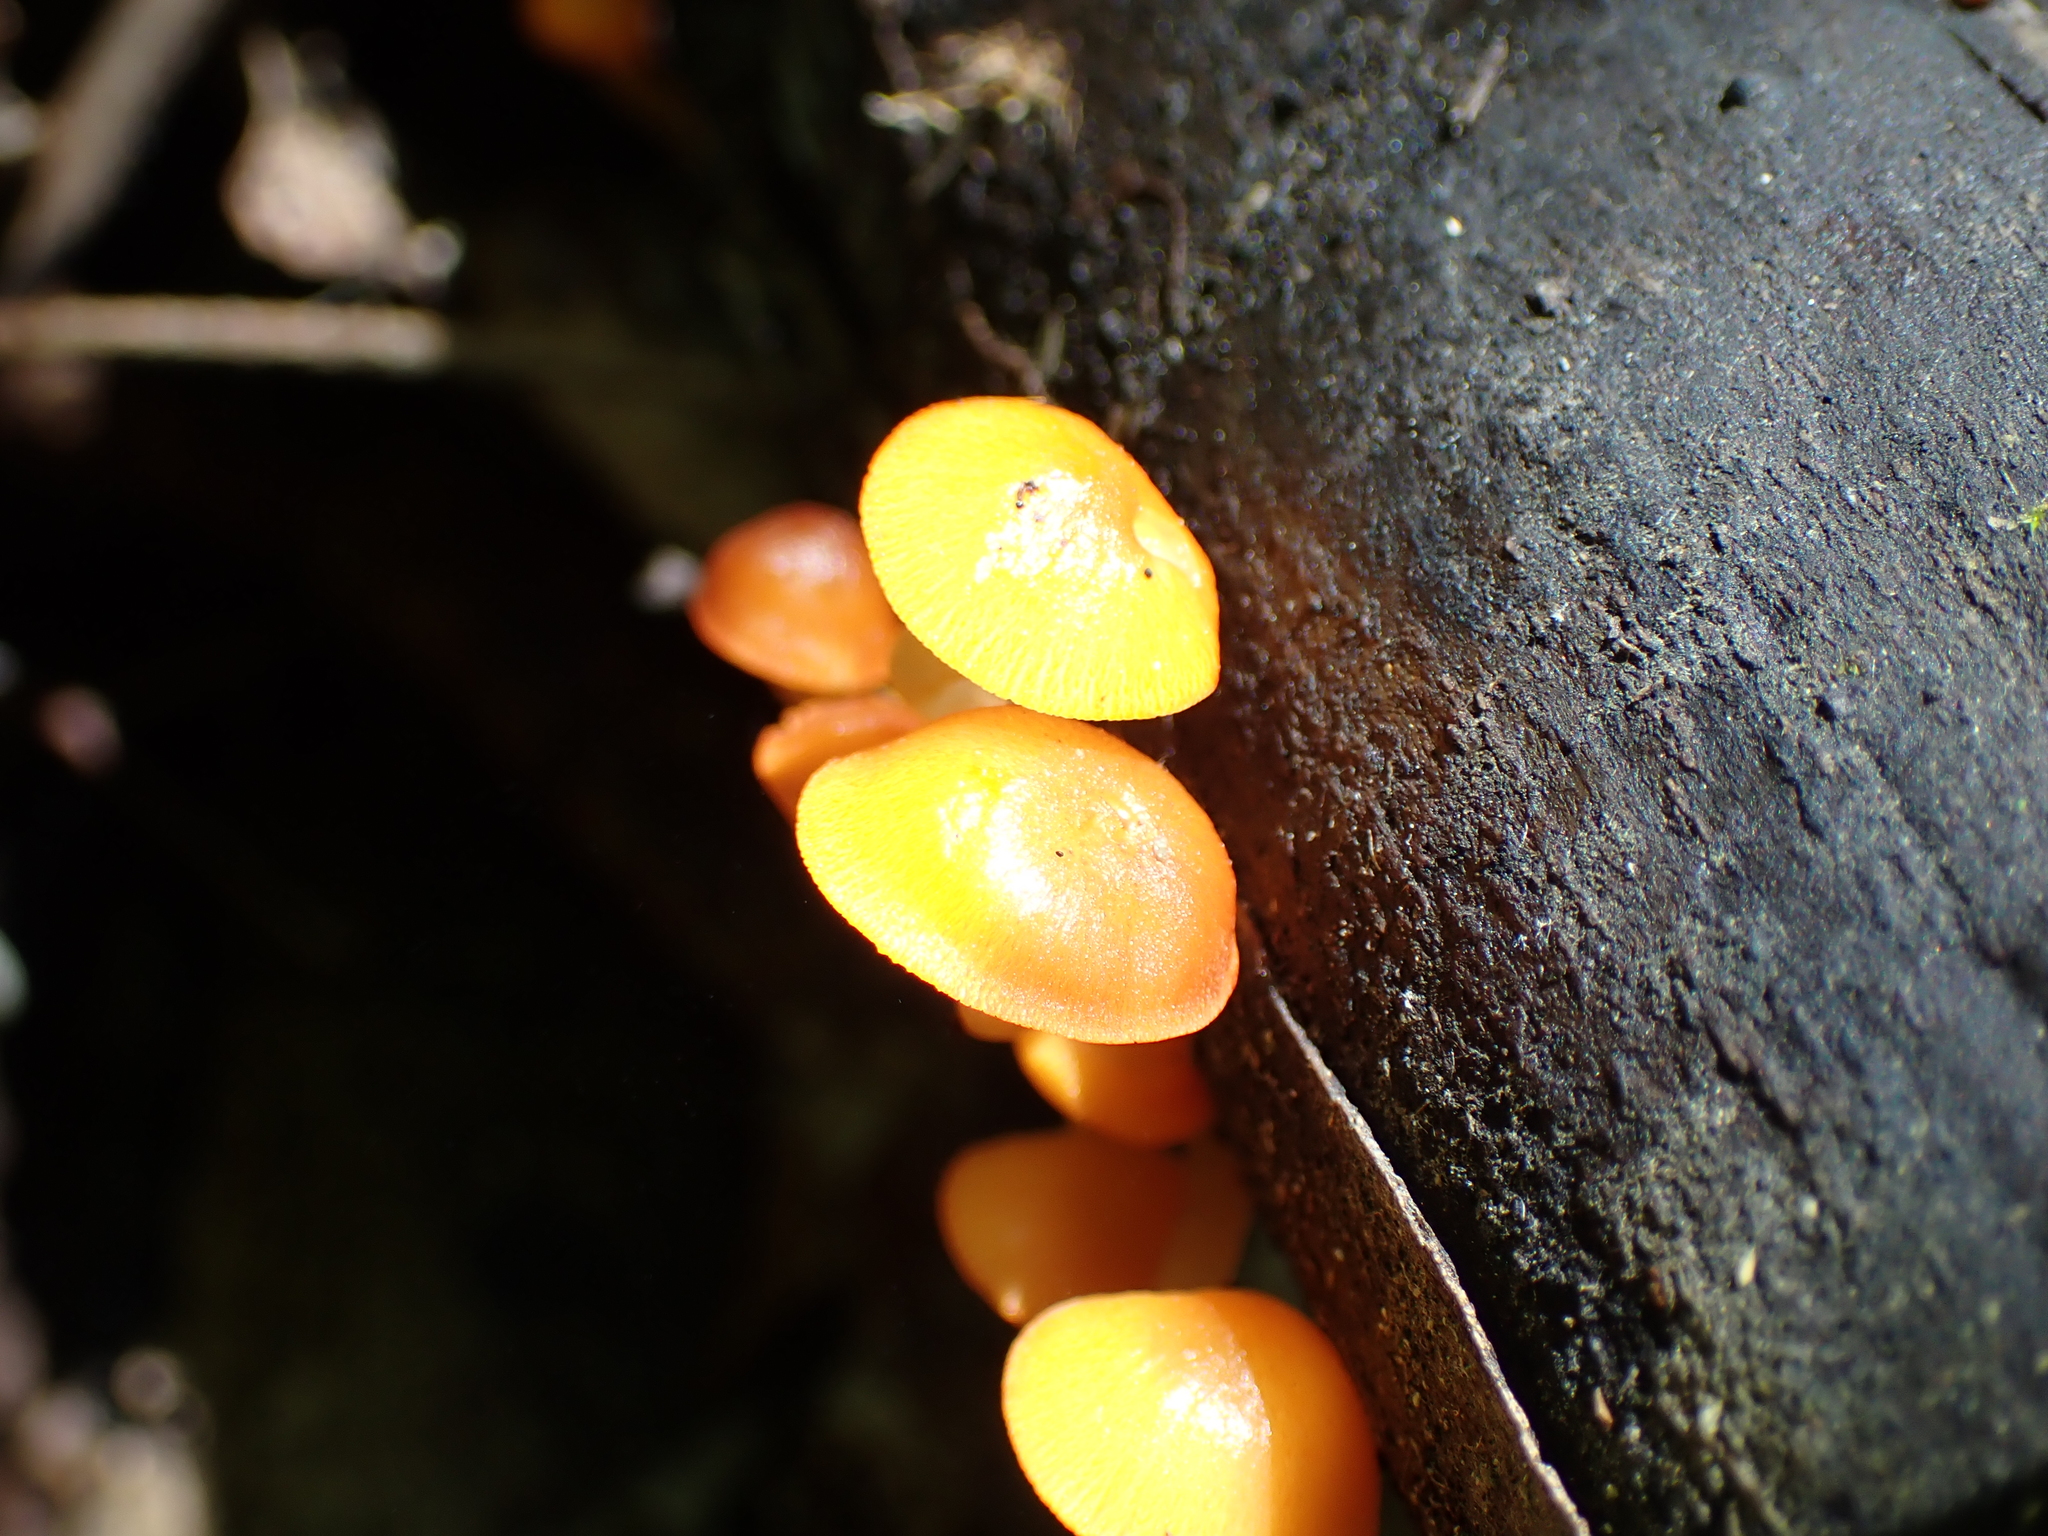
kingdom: Fungi
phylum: Basidiomycota
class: Agaricomycetes
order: Agaricales
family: Mycenaceae
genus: Mycena
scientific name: Mycena leaiana
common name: Orange mycena
